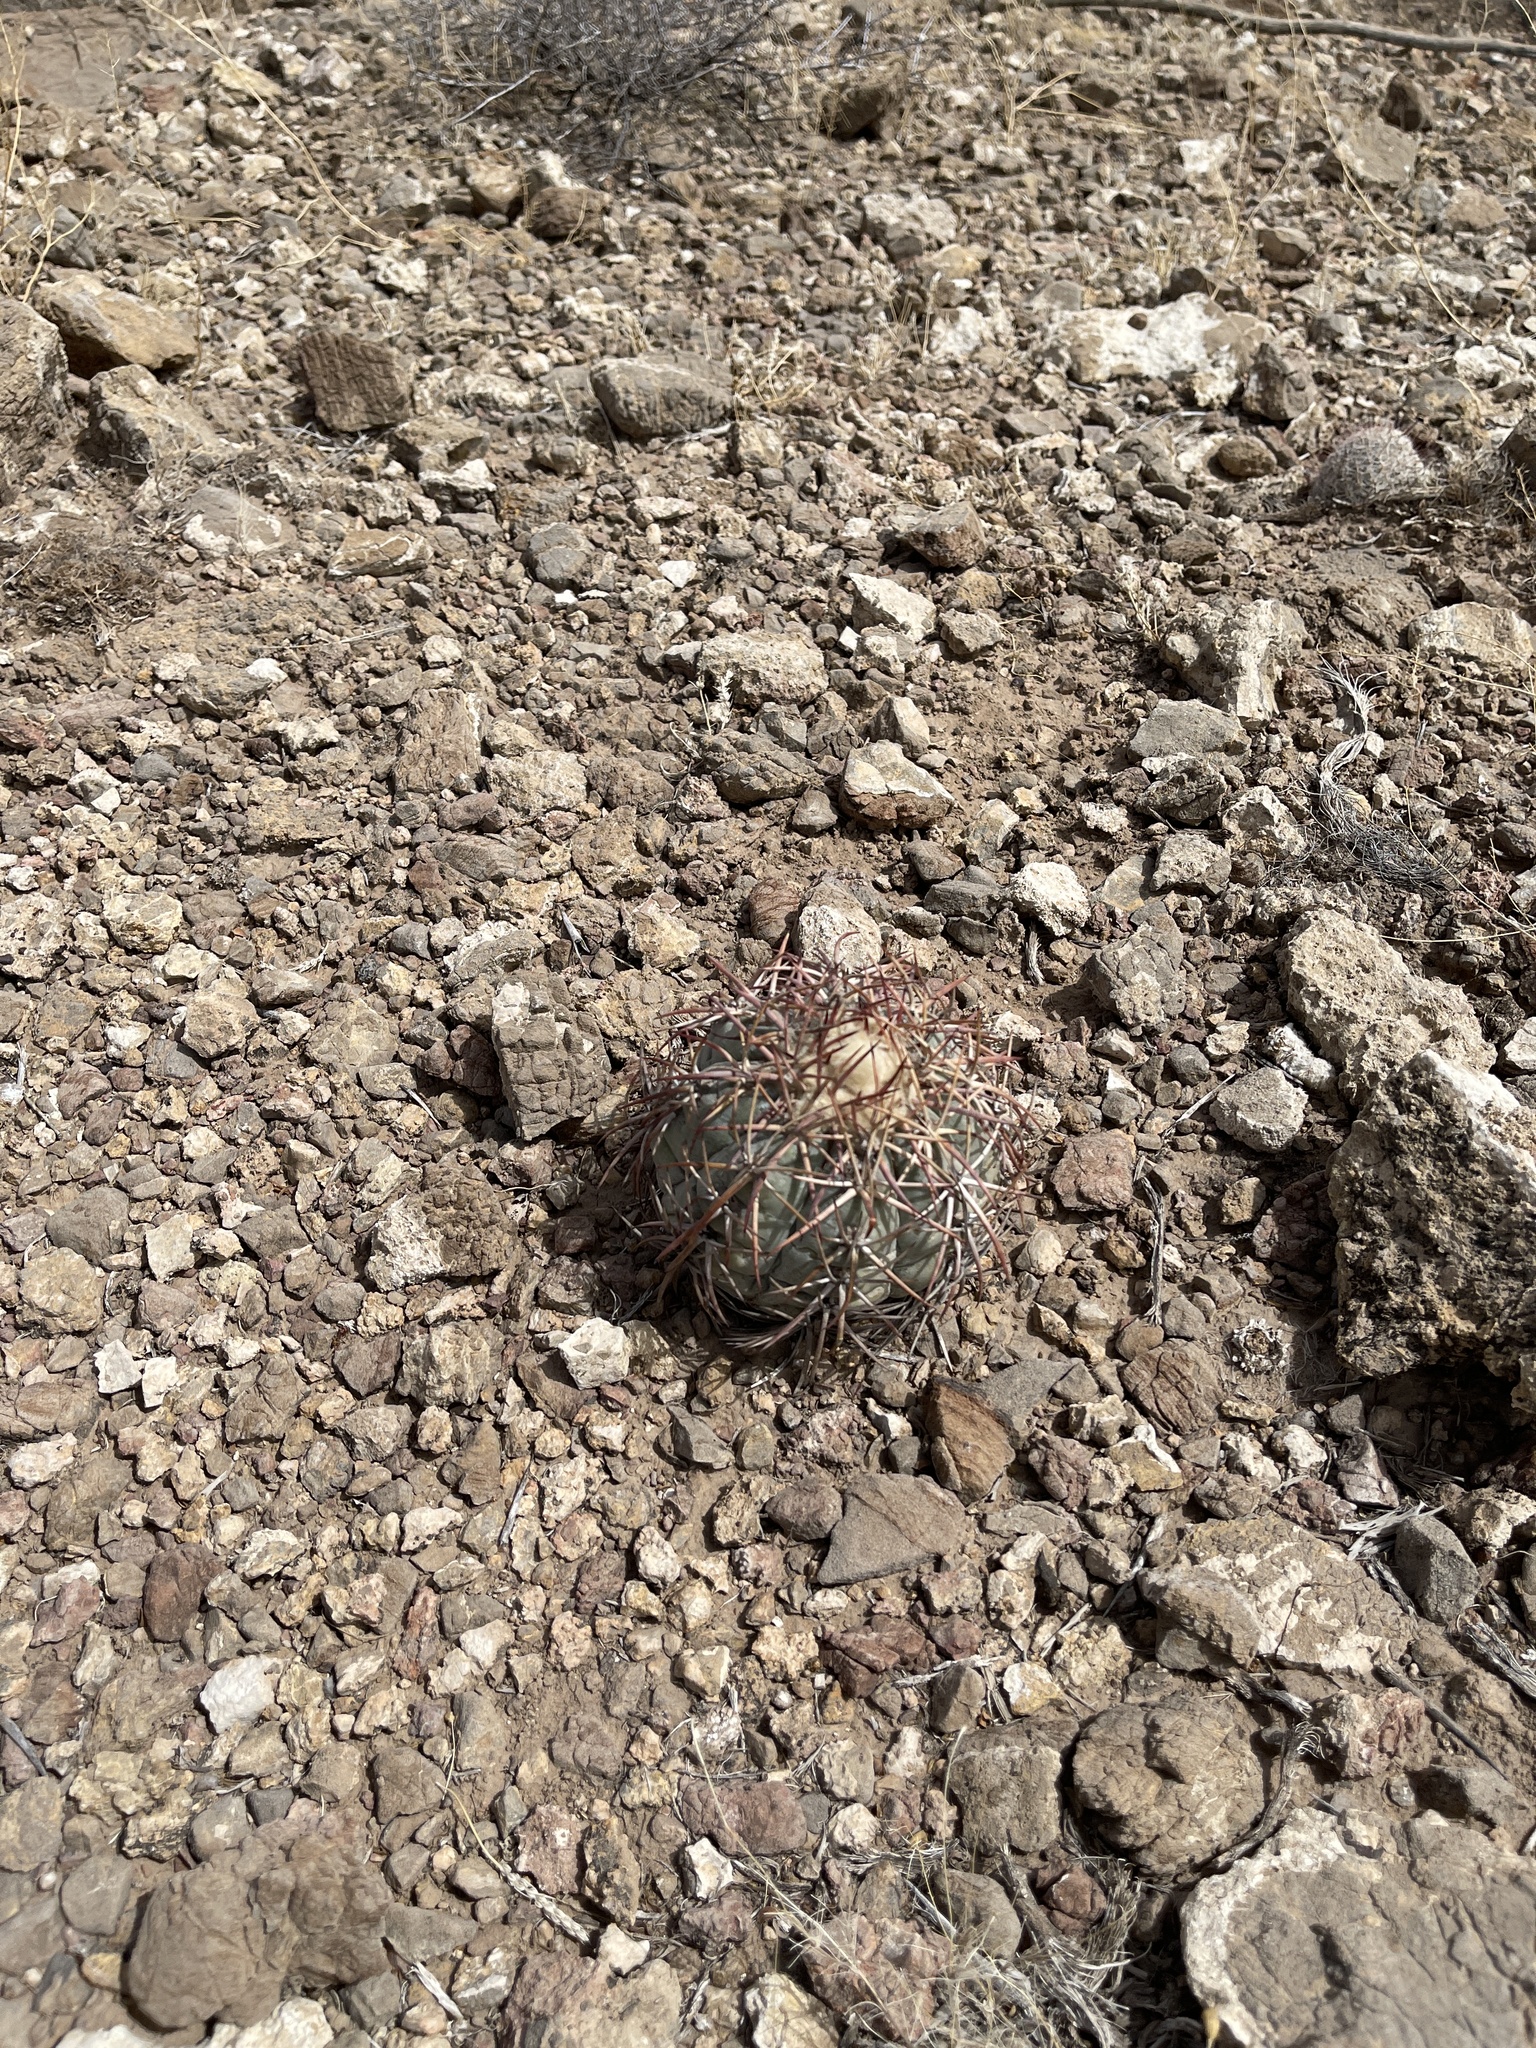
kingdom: Plantae
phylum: Tracheophyta
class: Magnoliopsida
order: Caryophyllales
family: Cactaceae
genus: Echinocactus
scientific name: Echinocactus horizonthalonius
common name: Devilshead
